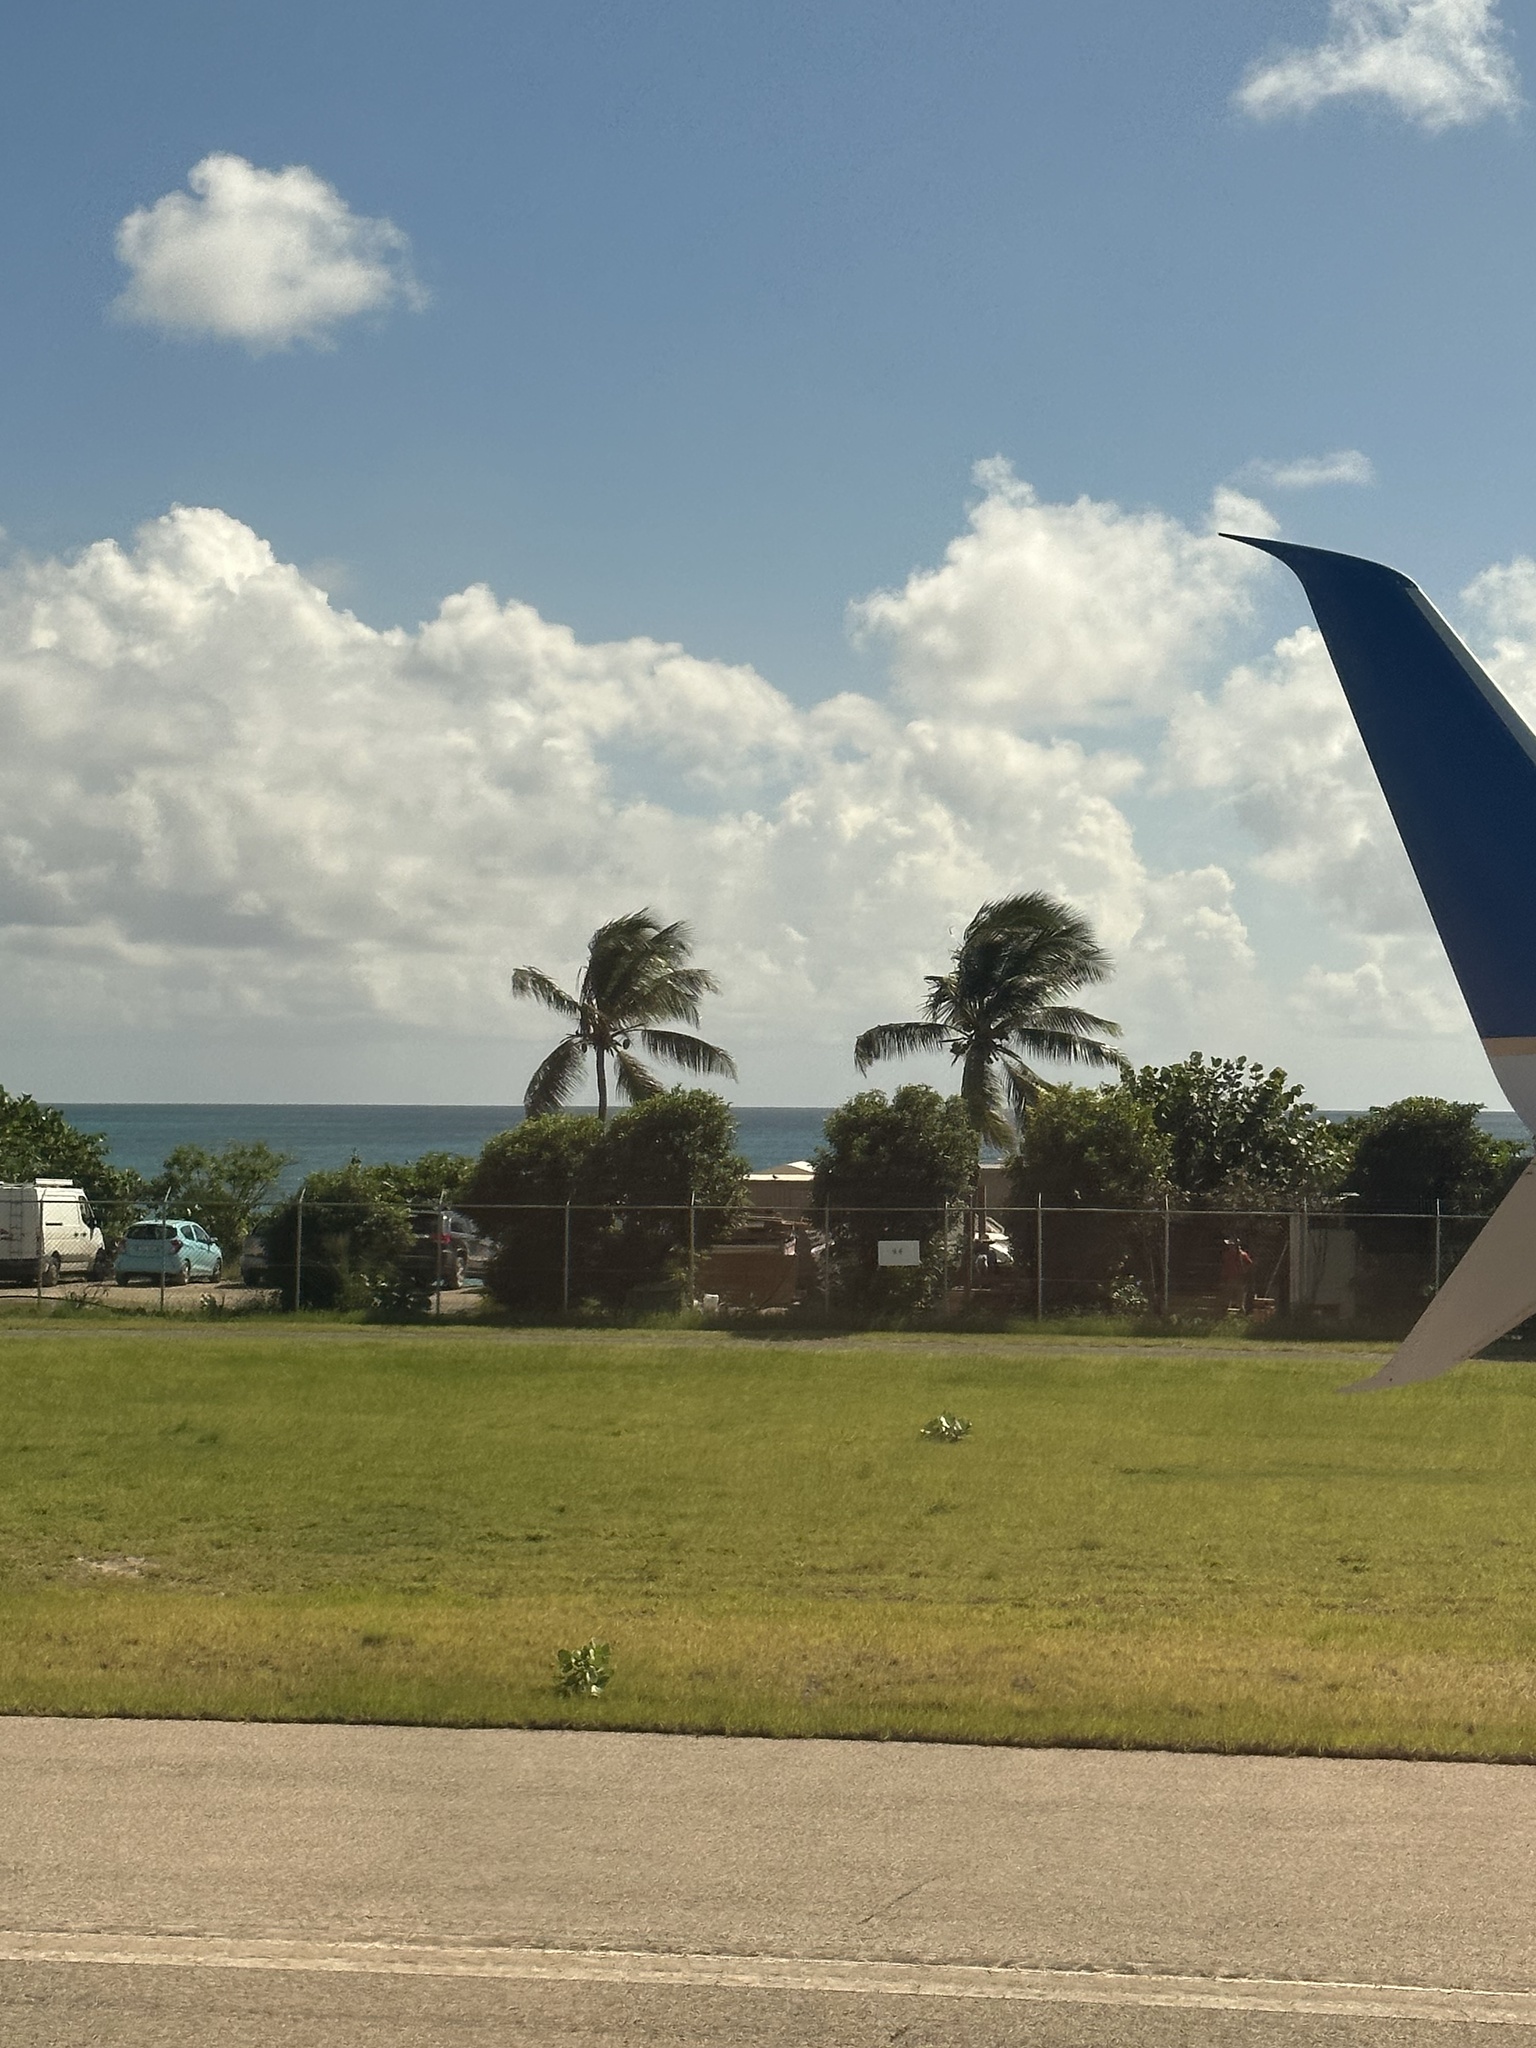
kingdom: Plantae
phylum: Tracheophyta
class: Liliopsida
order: Arecales
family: Arecaceae
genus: Cocos
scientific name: Cocos nucifera
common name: Coconut palm
